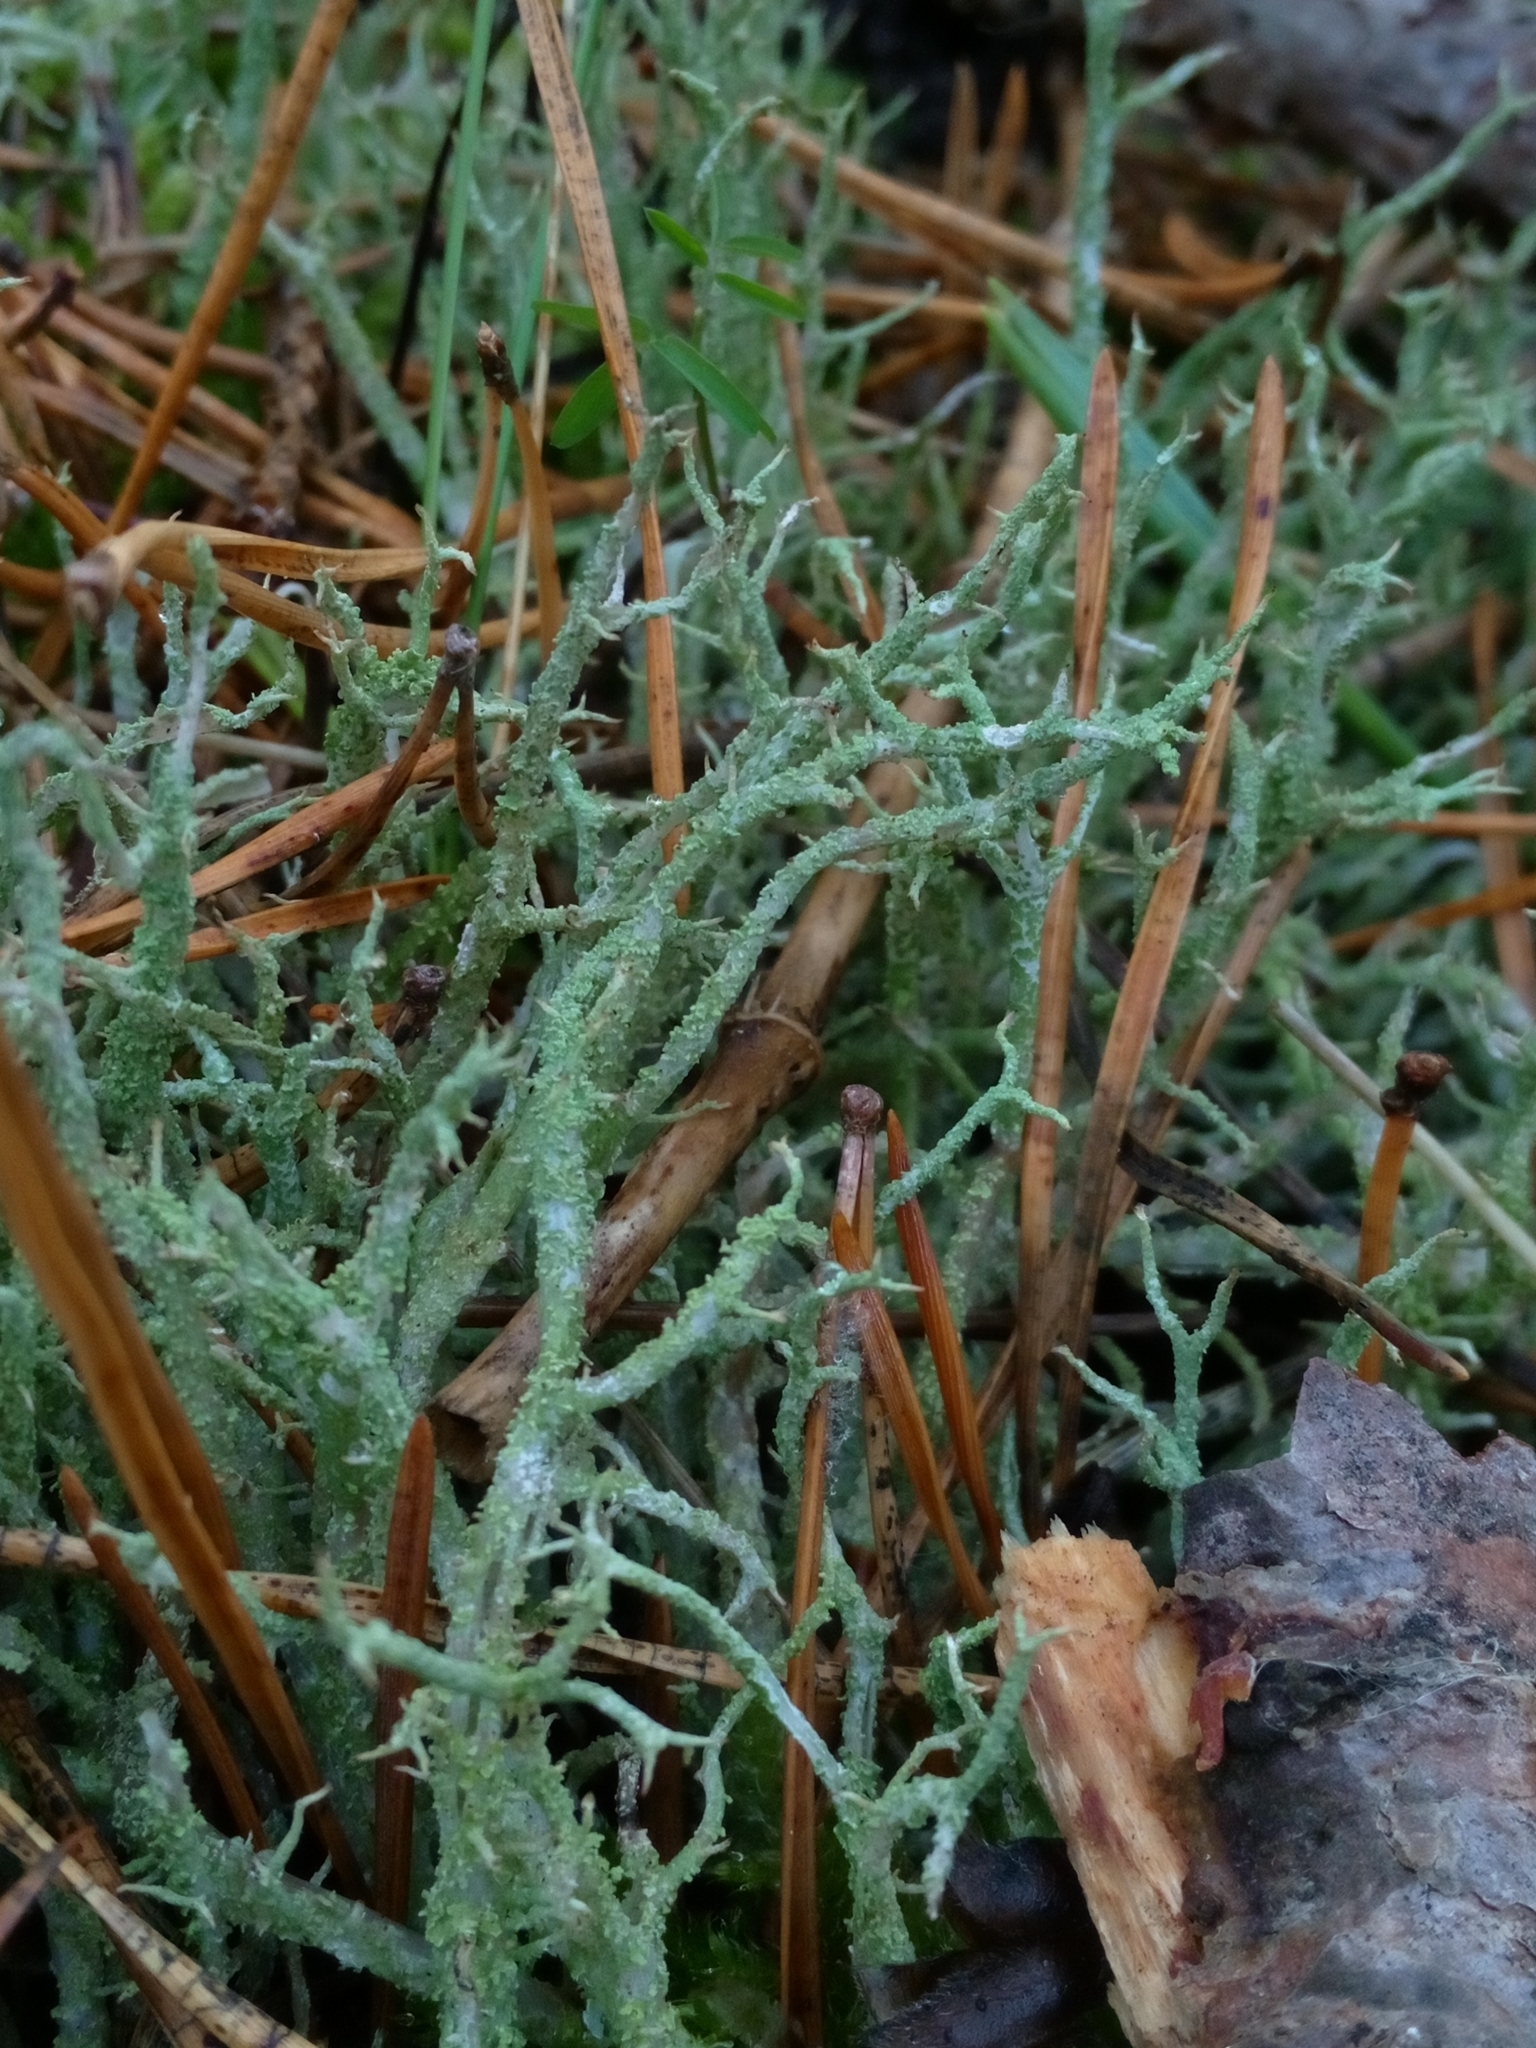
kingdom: Fungi
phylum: Ascomycota
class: Lecanoromycetes
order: Lecanorales
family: Cladoniaceae
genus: Cladonia
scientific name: Cladonia furcata
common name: Many-forked cladonia
